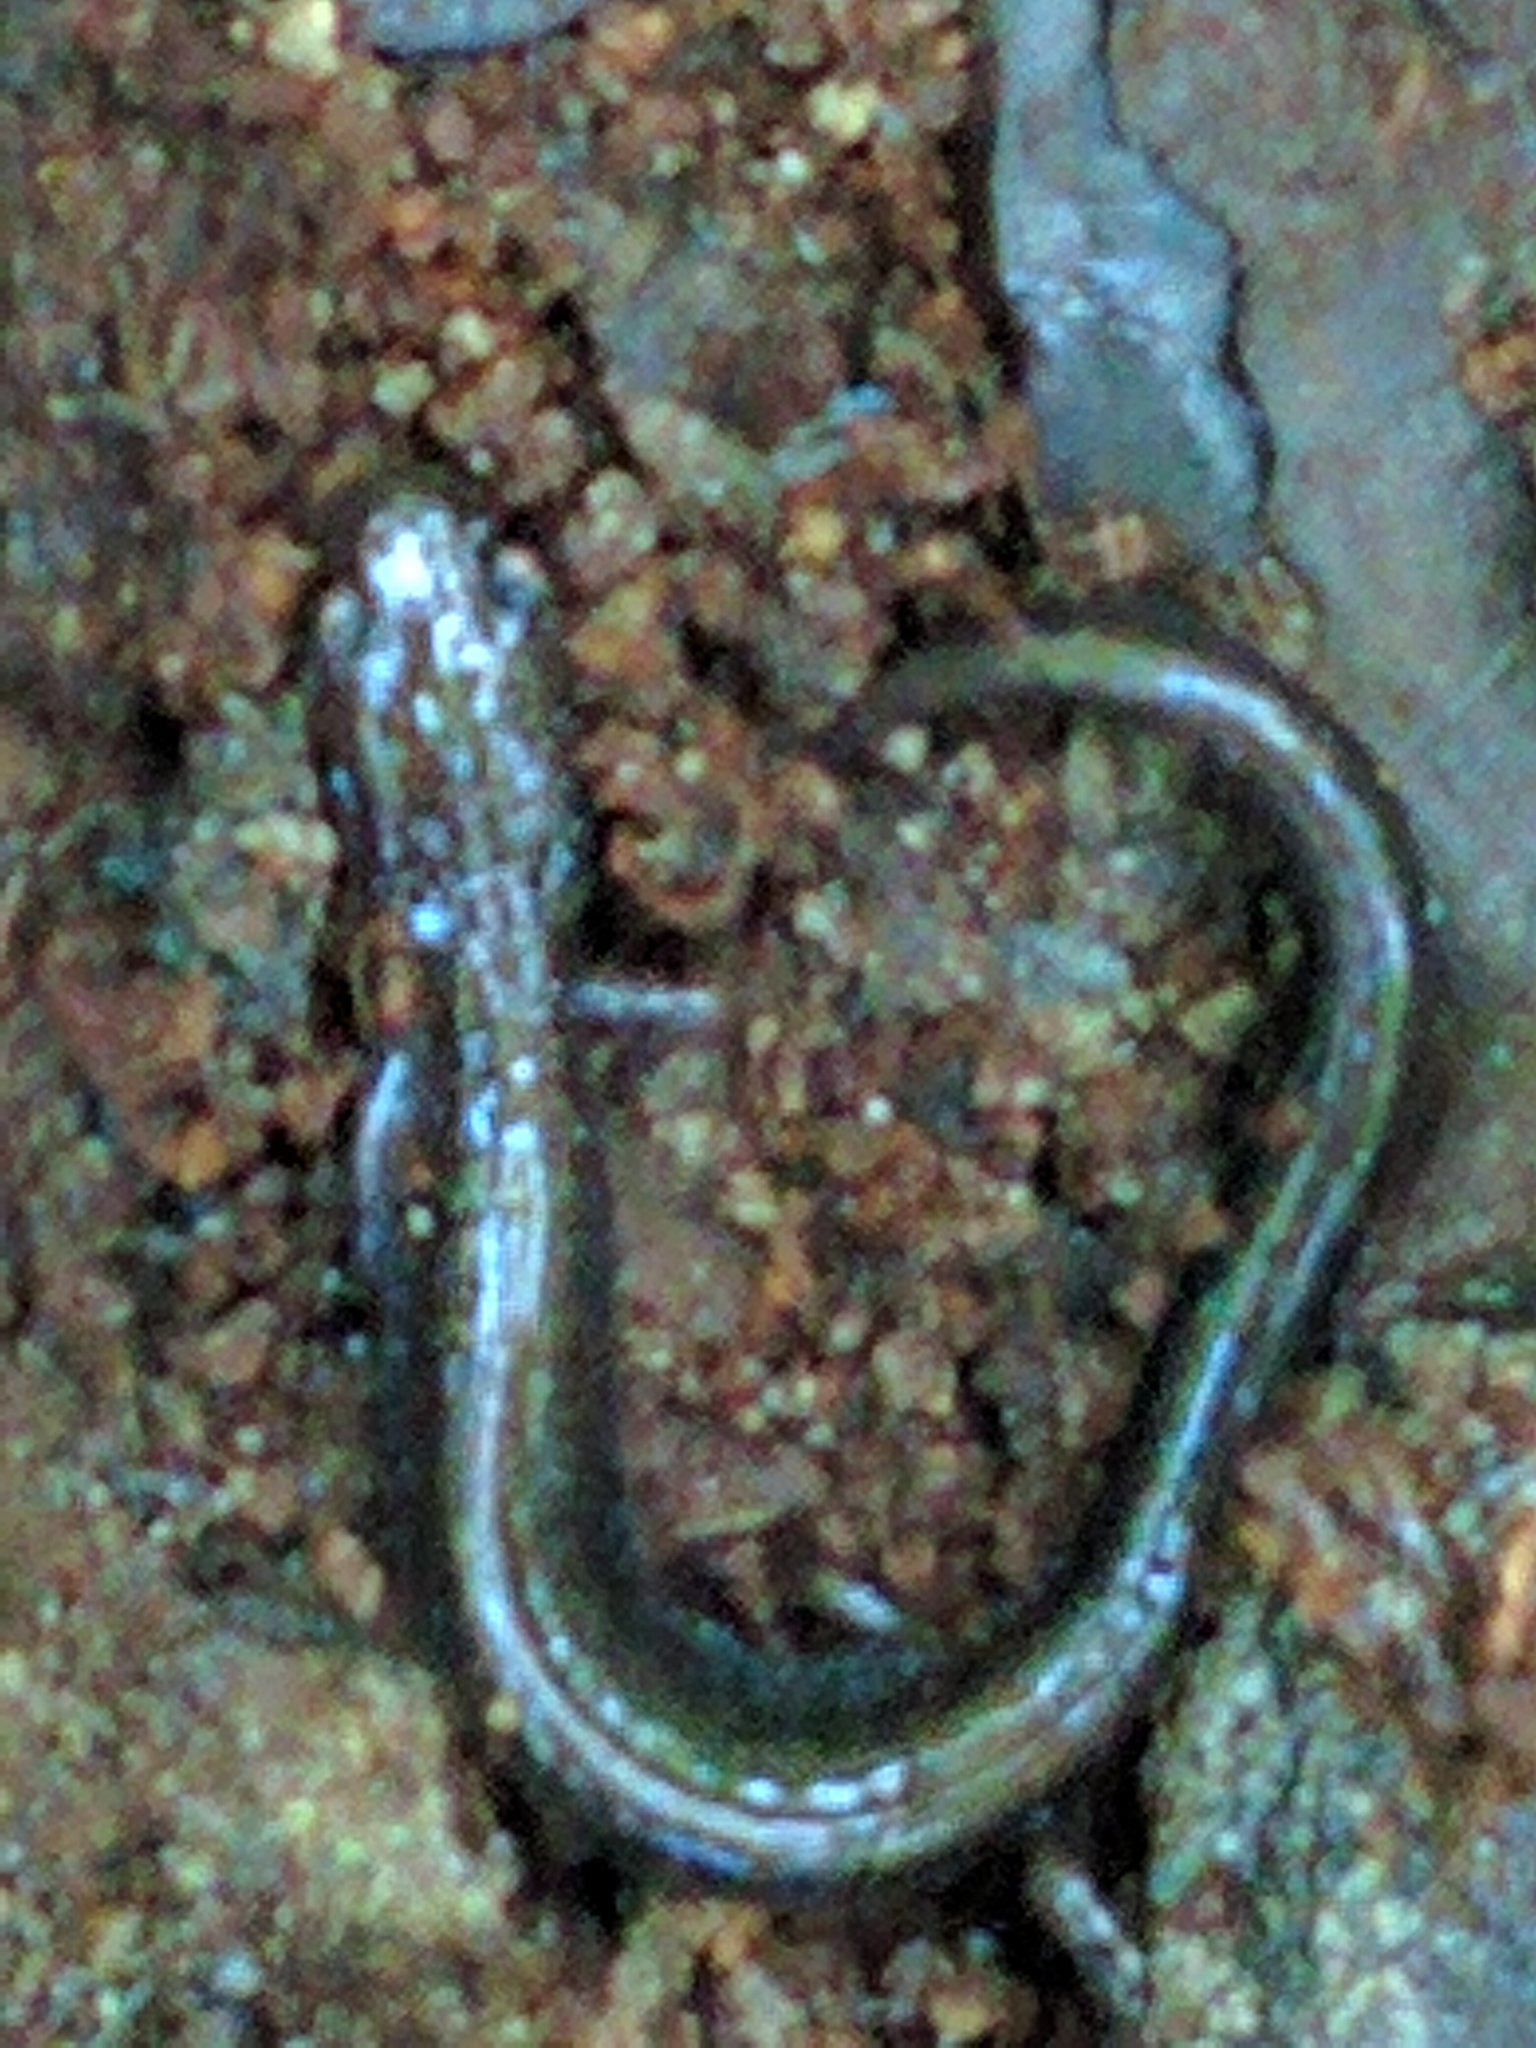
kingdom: Animalia
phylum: Chordata
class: Amphibia
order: Caudata
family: Plethodontidae
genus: Plethodon
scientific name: Plethodon cinereus
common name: Redback salamander
